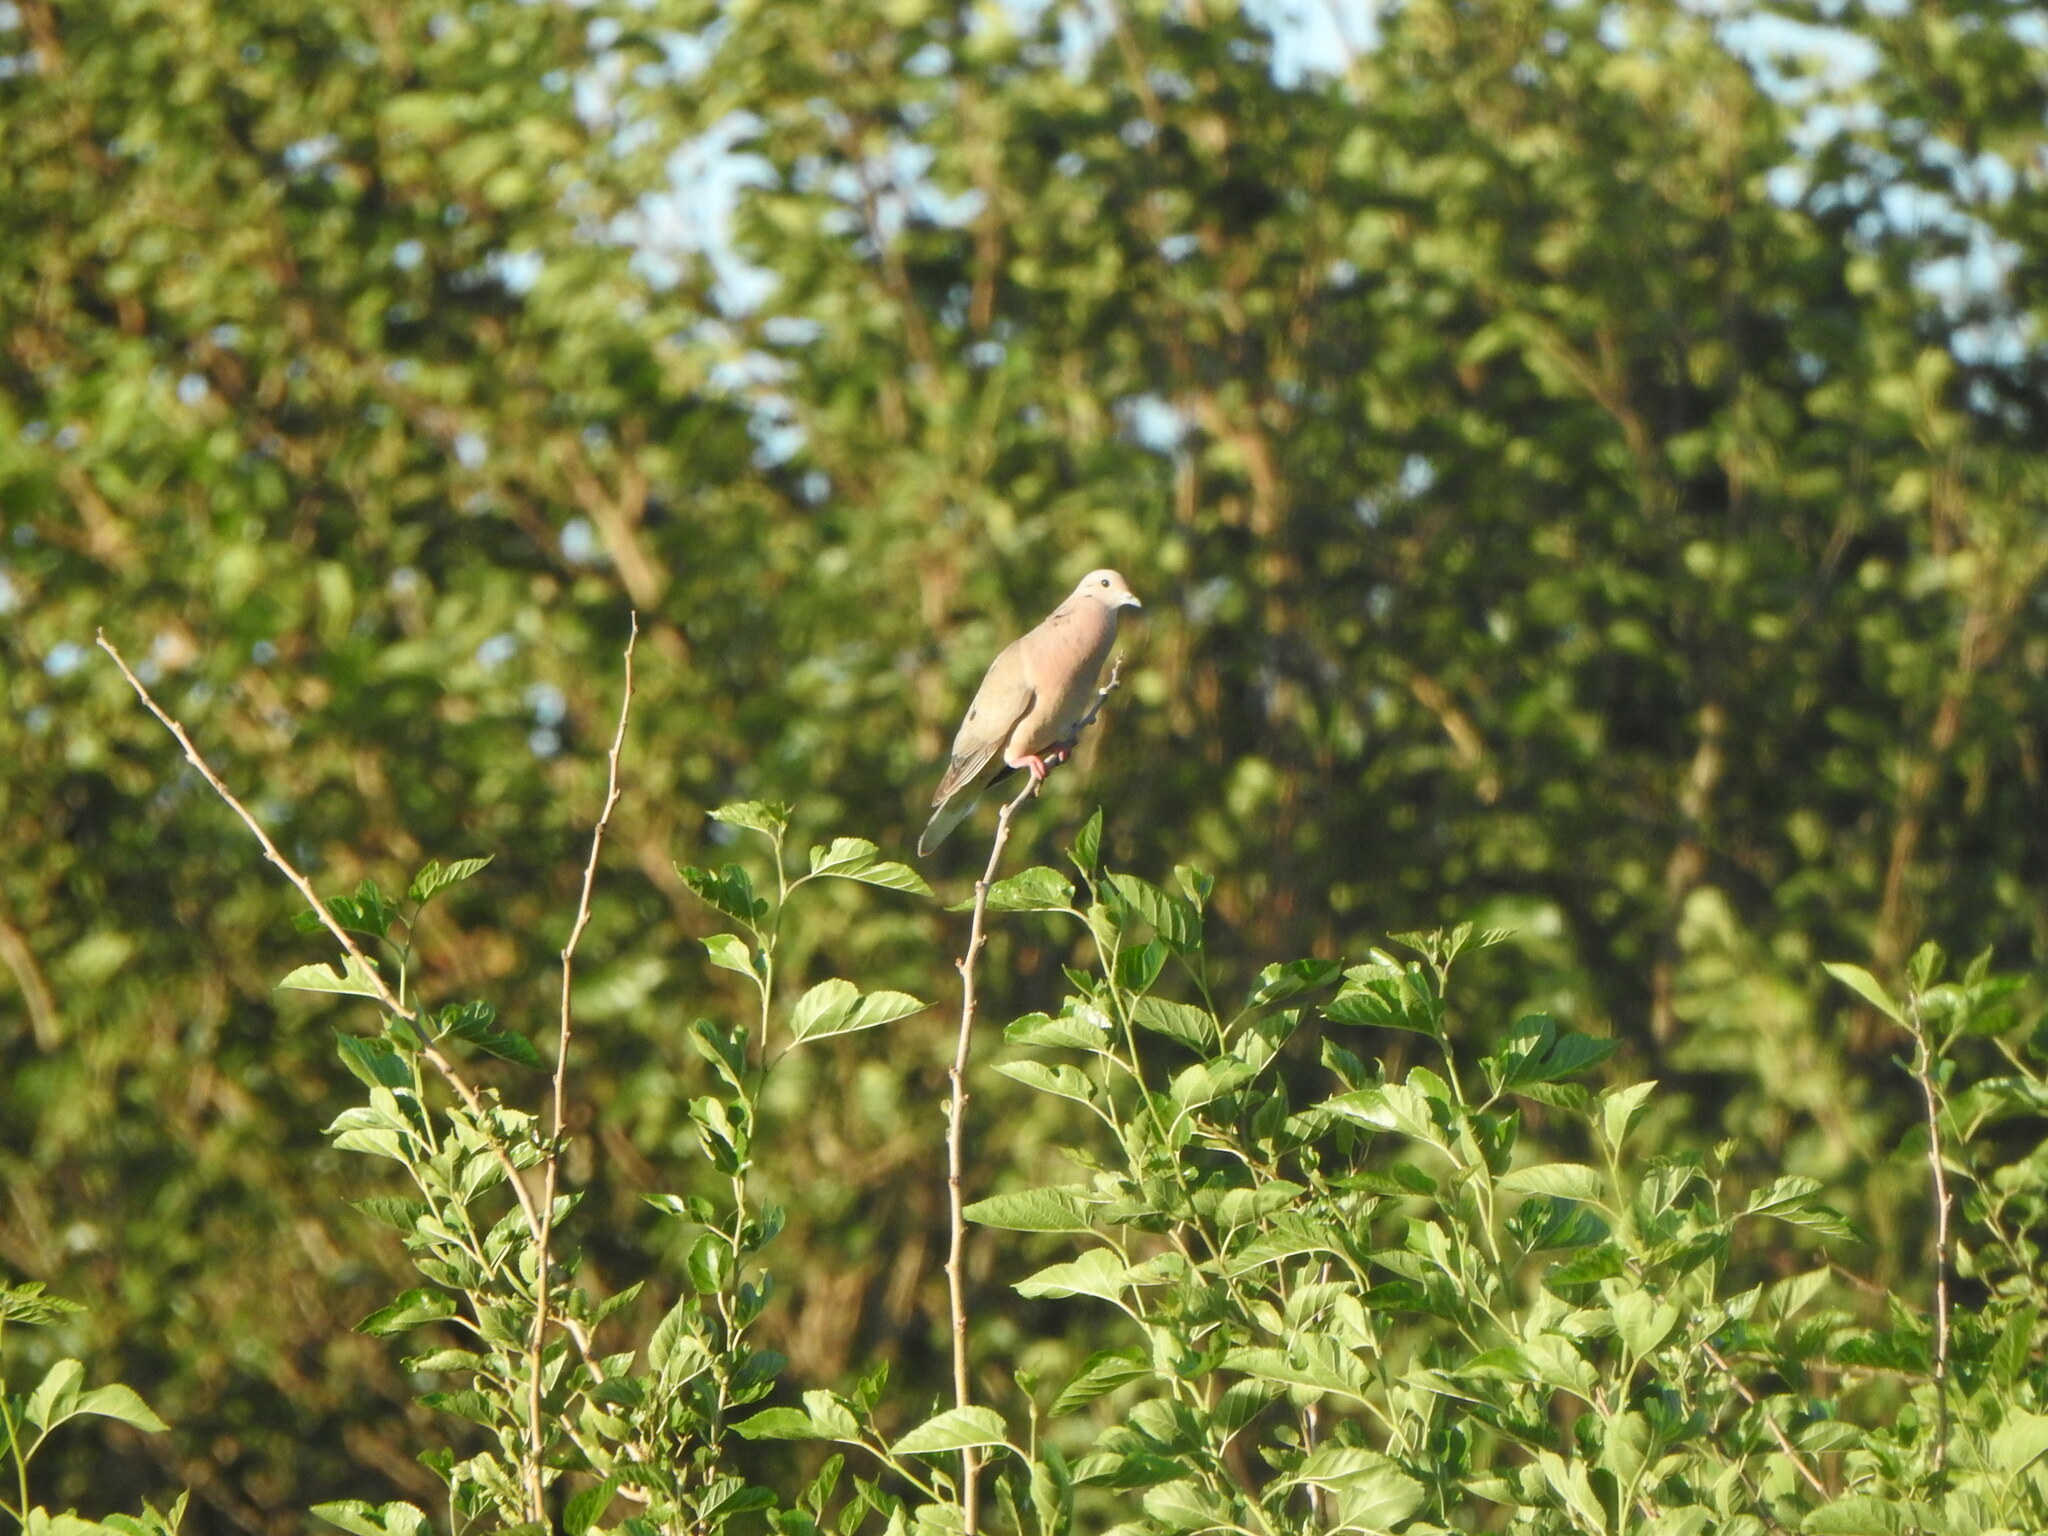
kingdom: Animalia
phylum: Chordata
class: Aves
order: Columbiformes
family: Columbidae
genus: Zenaida
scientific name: Zenaida auriculata
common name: Eared dove
